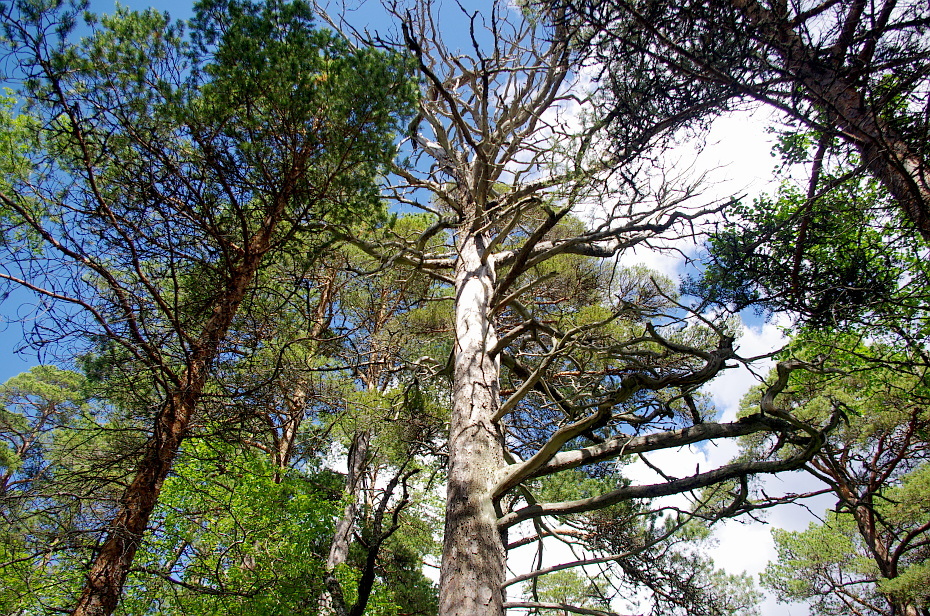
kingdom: Plantae
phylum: Tracheophyta
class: Pinopsida
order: Pinales
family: Pinaceae
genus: Pinus
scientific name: Pinus sylvestris
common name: Scots pine
